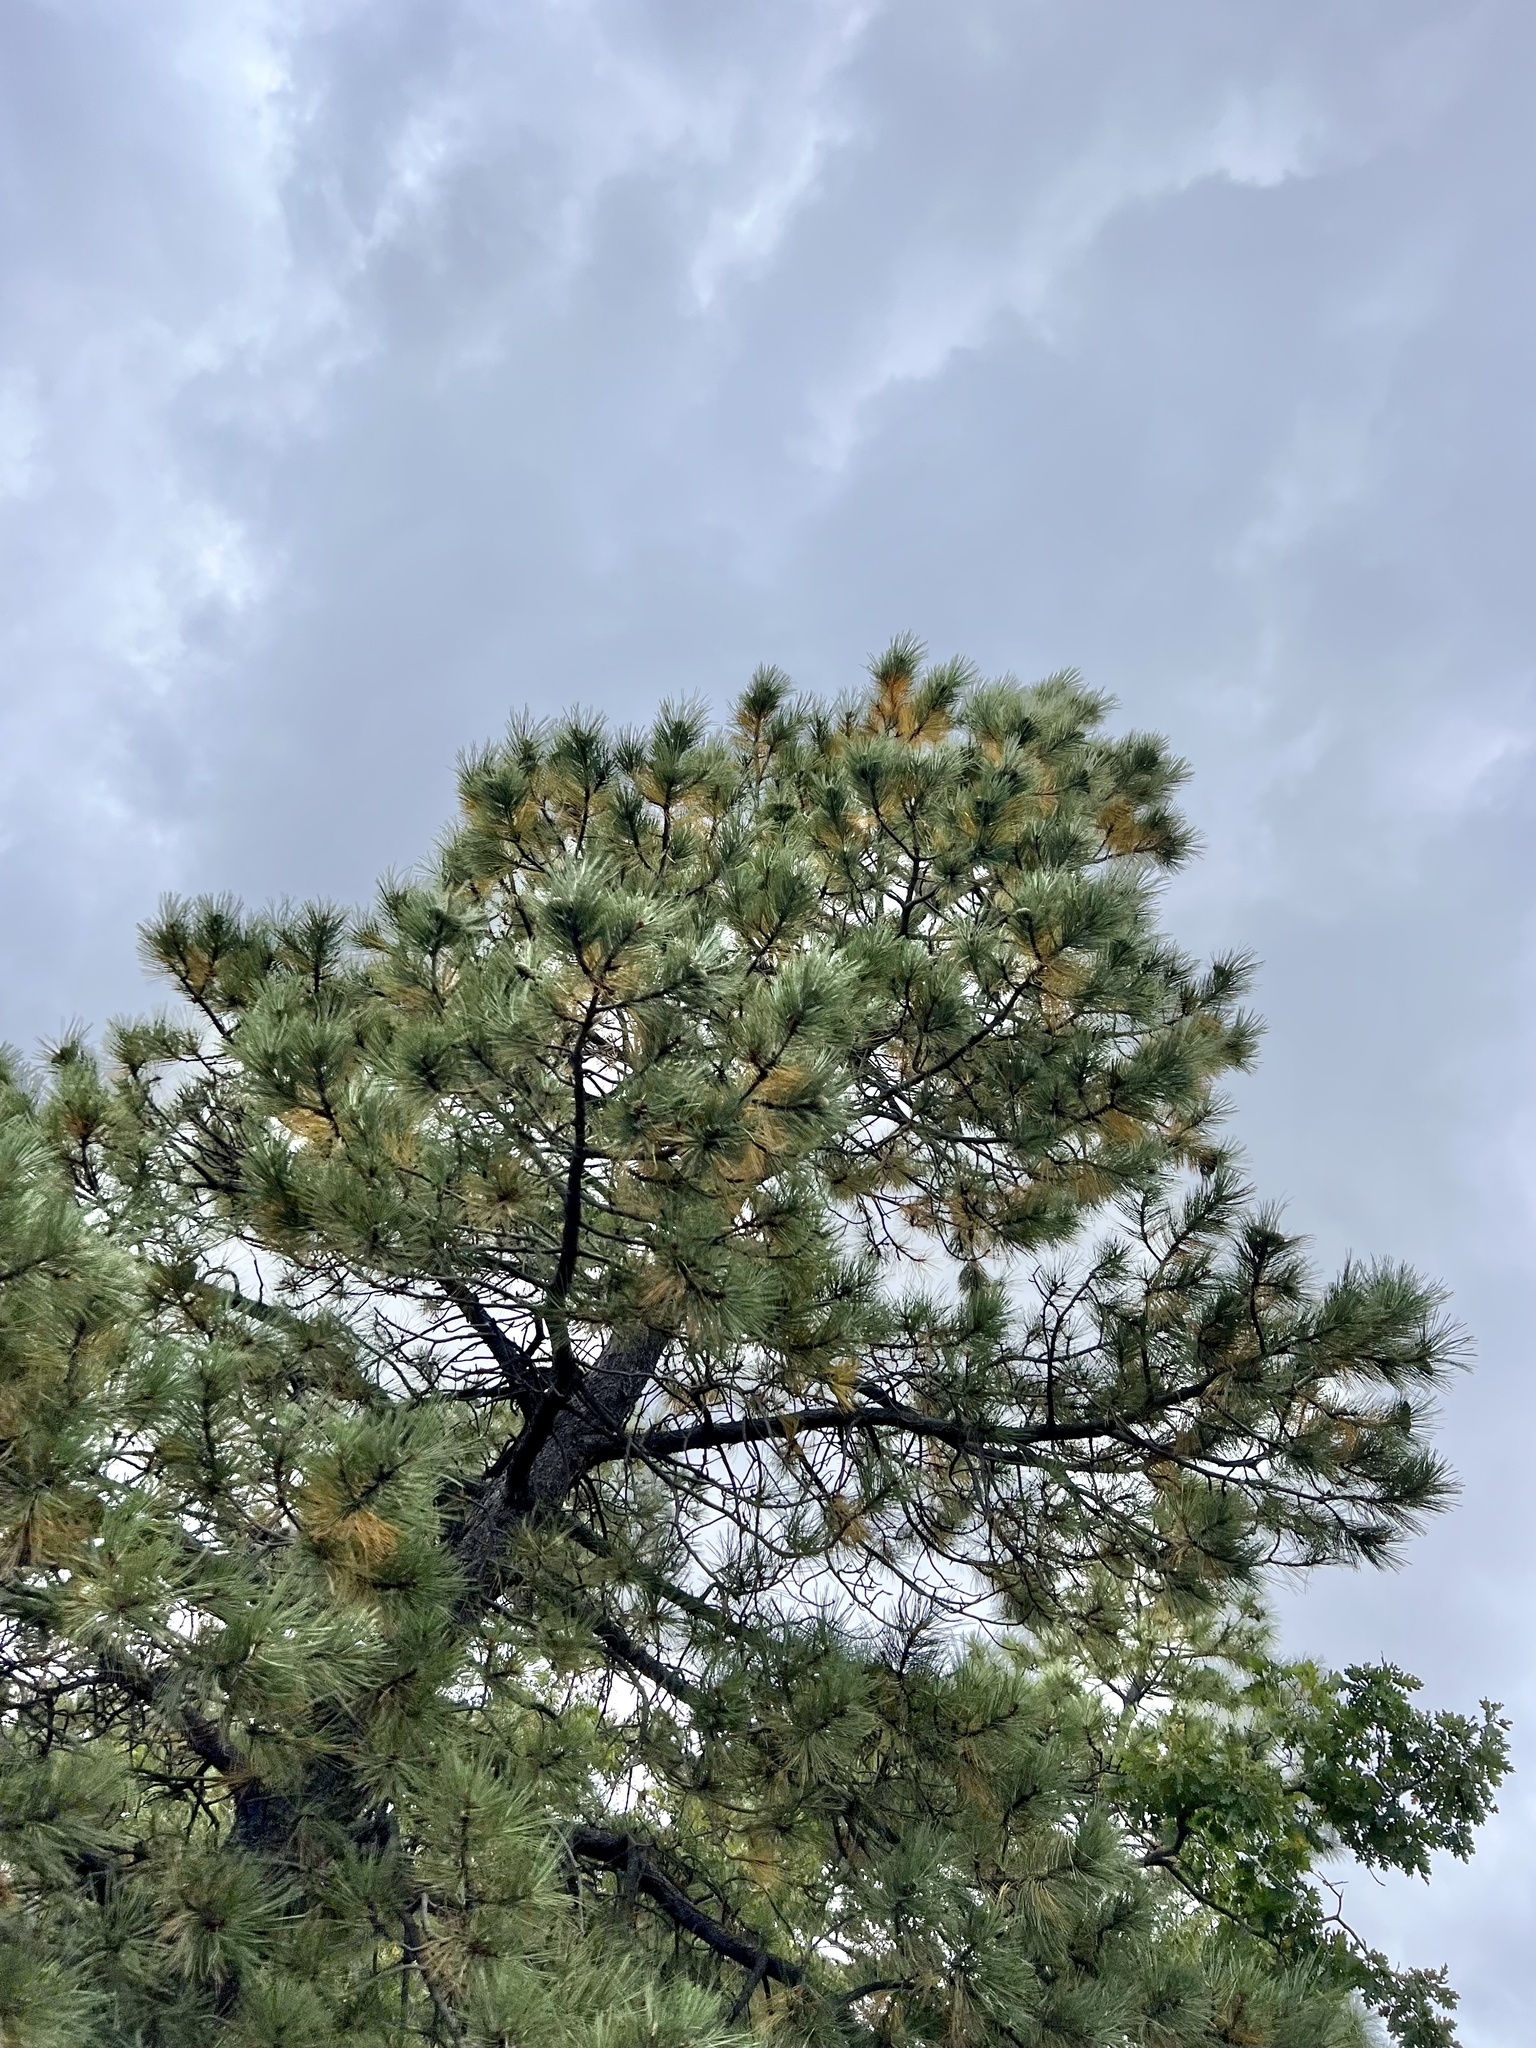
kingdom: Plantae
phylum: Tracheophyta
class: Pinopsida
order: Pinales
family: Pinaceae
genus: Pinus
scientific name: Pinus ponderosa
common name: Western yellow-pine
